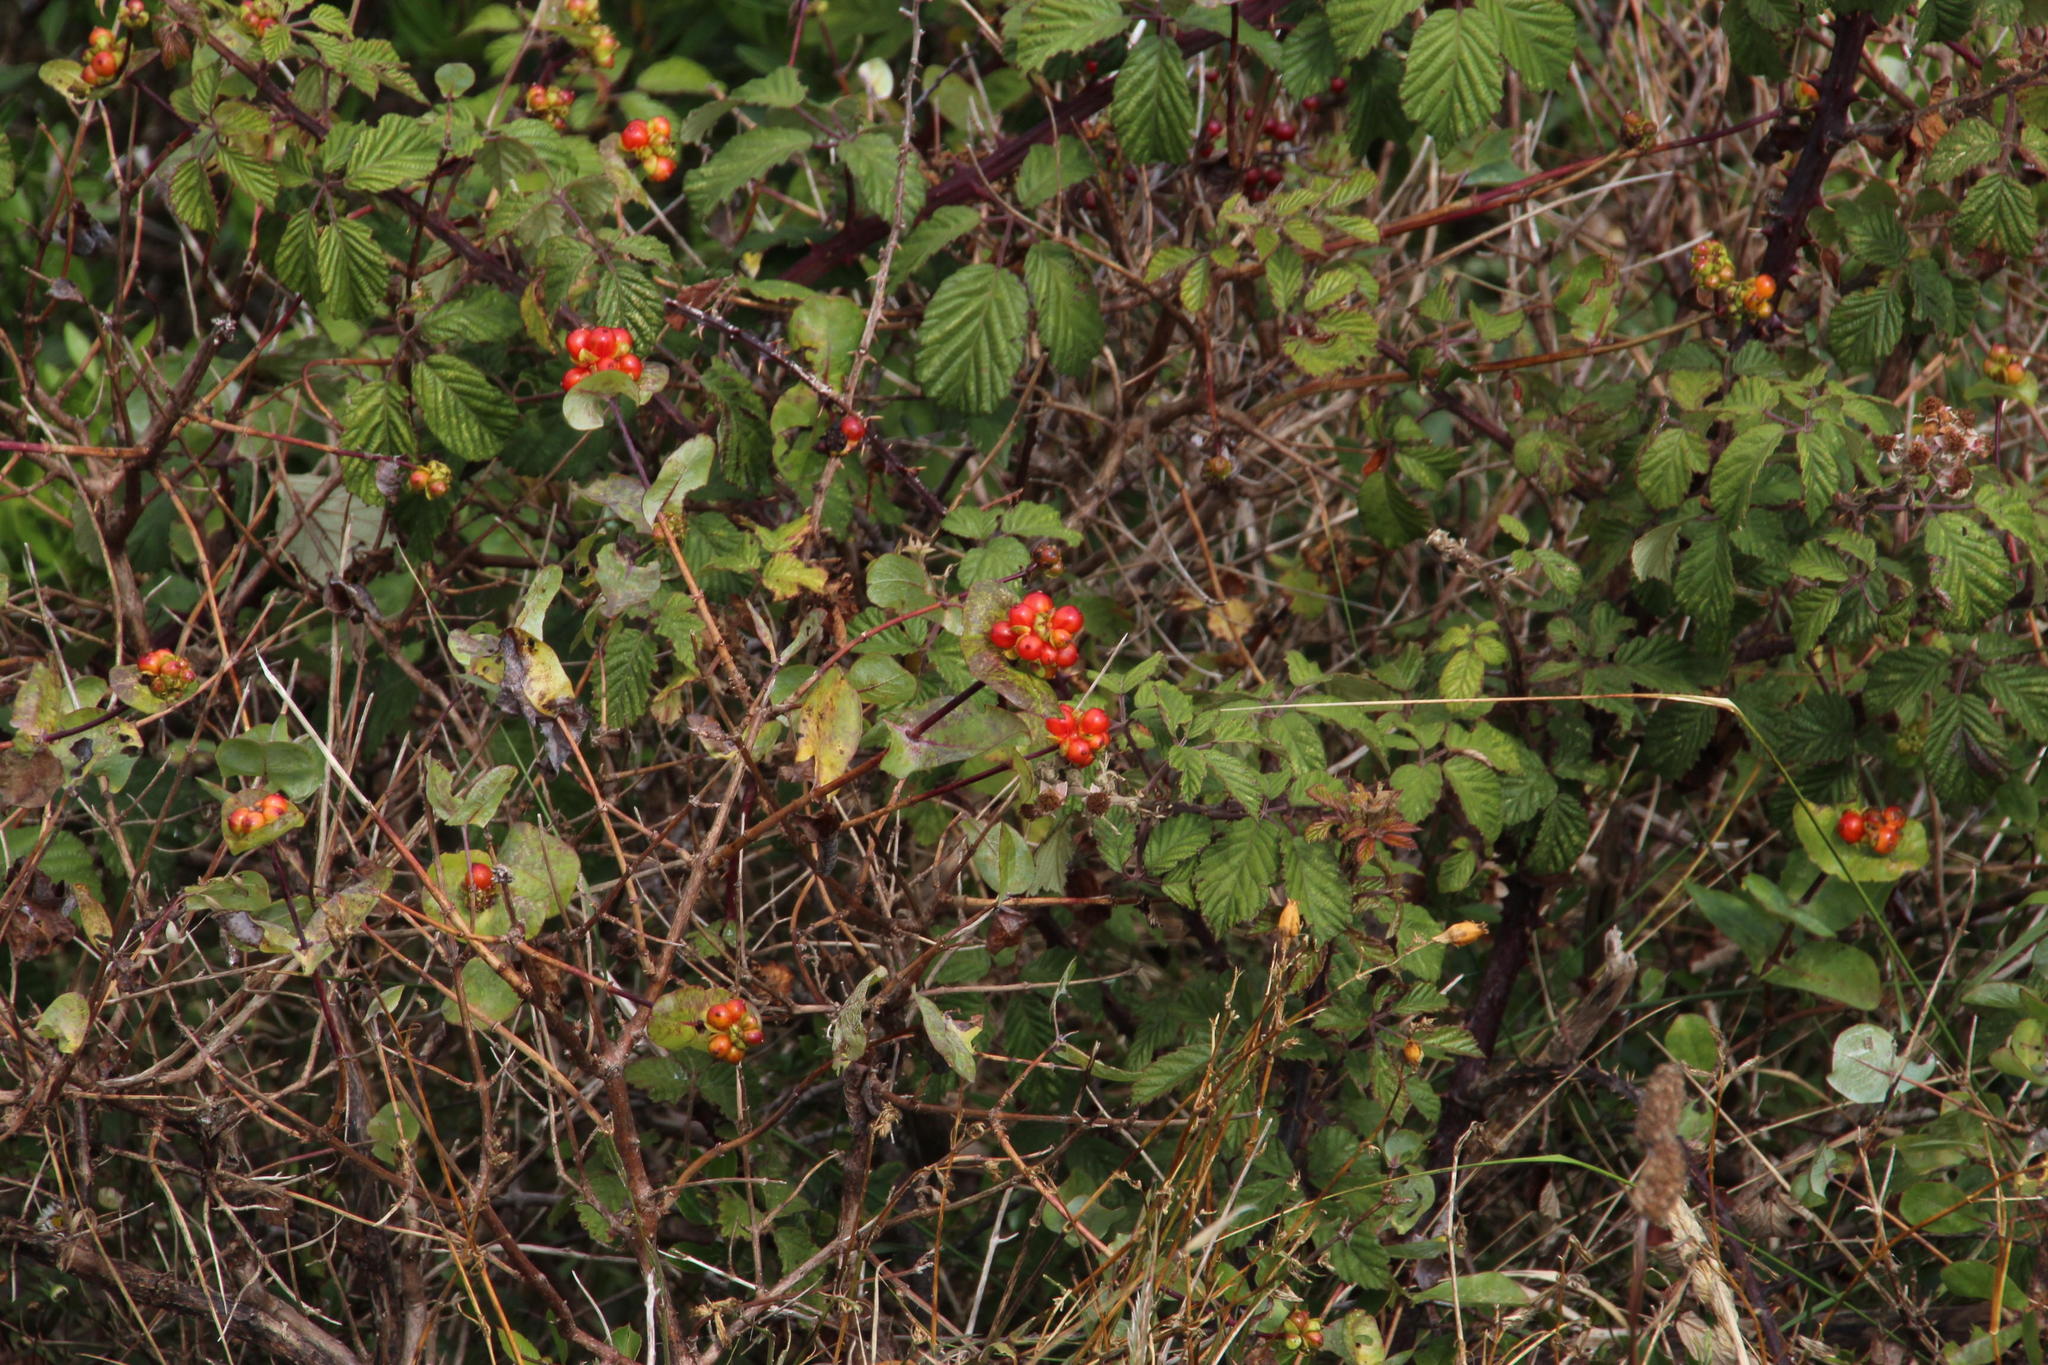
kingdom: Plantae
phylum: Tracheophyta
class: Magnoliopsida
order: Dipsacales
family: Caprifoliaceae
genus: Lonicera
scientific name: Lonicera implexa
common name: Minorca honeysuckle
